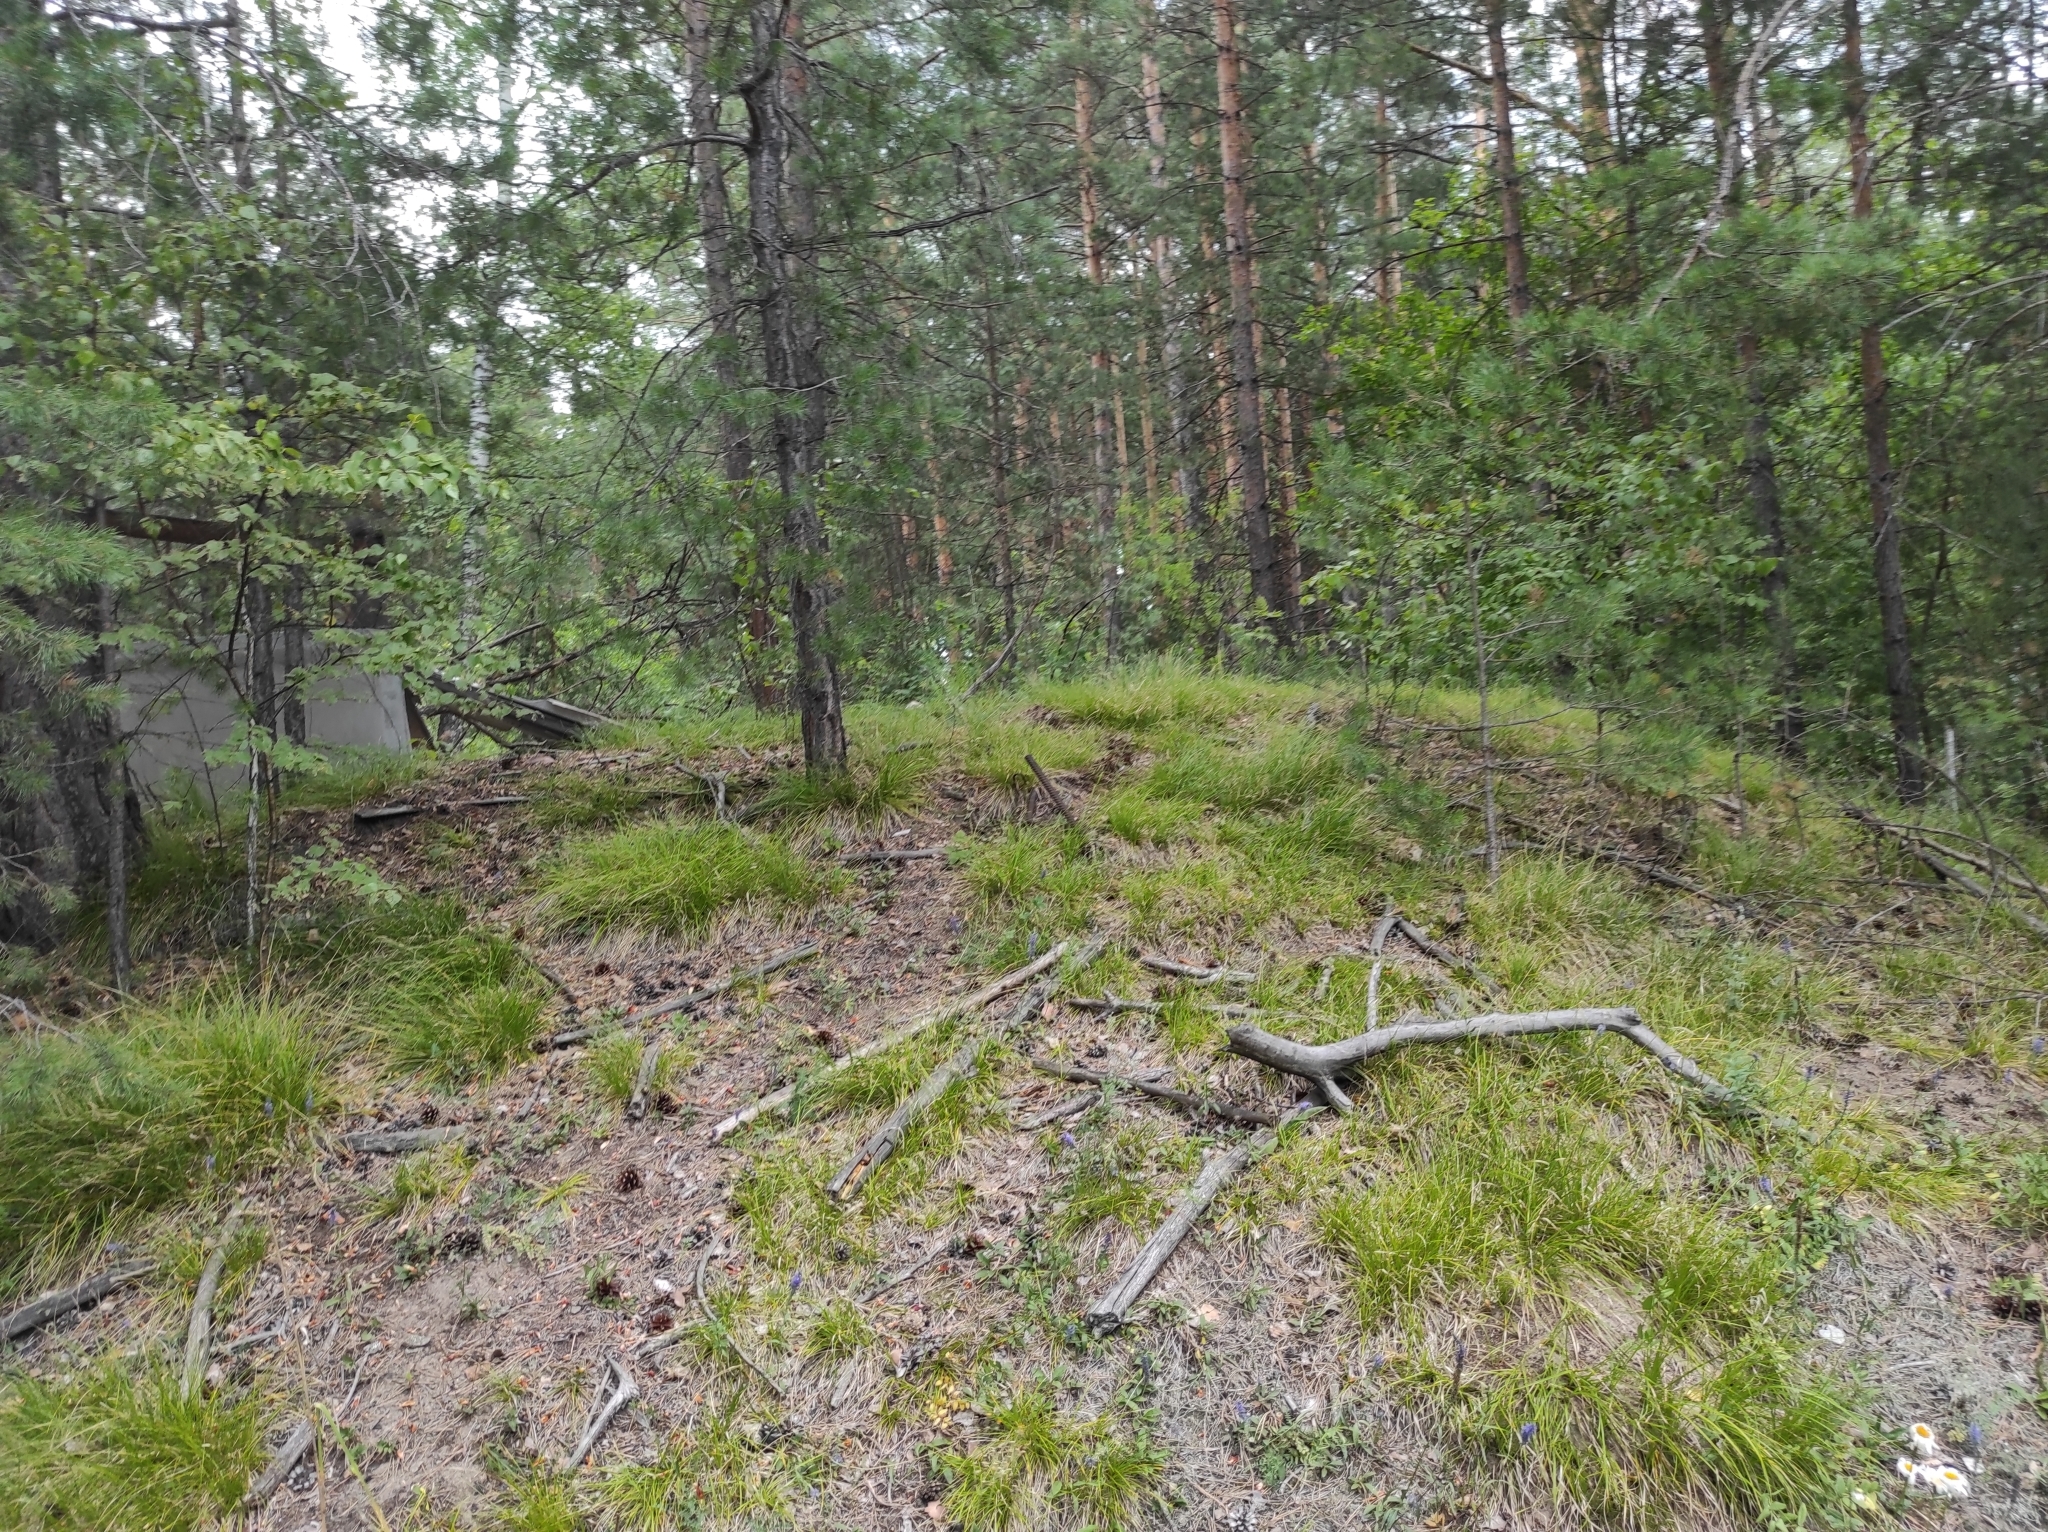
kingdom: Plantae
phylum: Tracheophyta
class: Pinopsida
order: Pinales
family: Pinaceae
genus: Pinus
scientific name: Pinus sylvestris
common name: Scots pine
